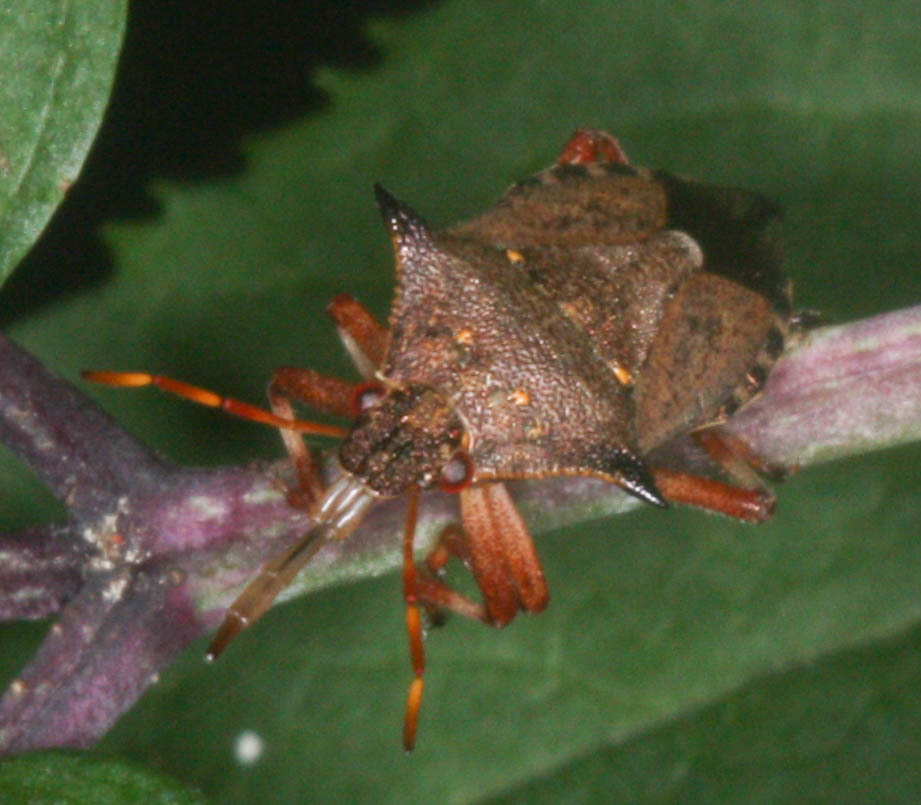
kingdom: Animalia
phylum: Arthropoda
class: Insecta
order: Hemiptera
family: Pentatomidae
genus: Picromerus
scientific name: Picromerus bidens
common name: Spiked shieldbug
